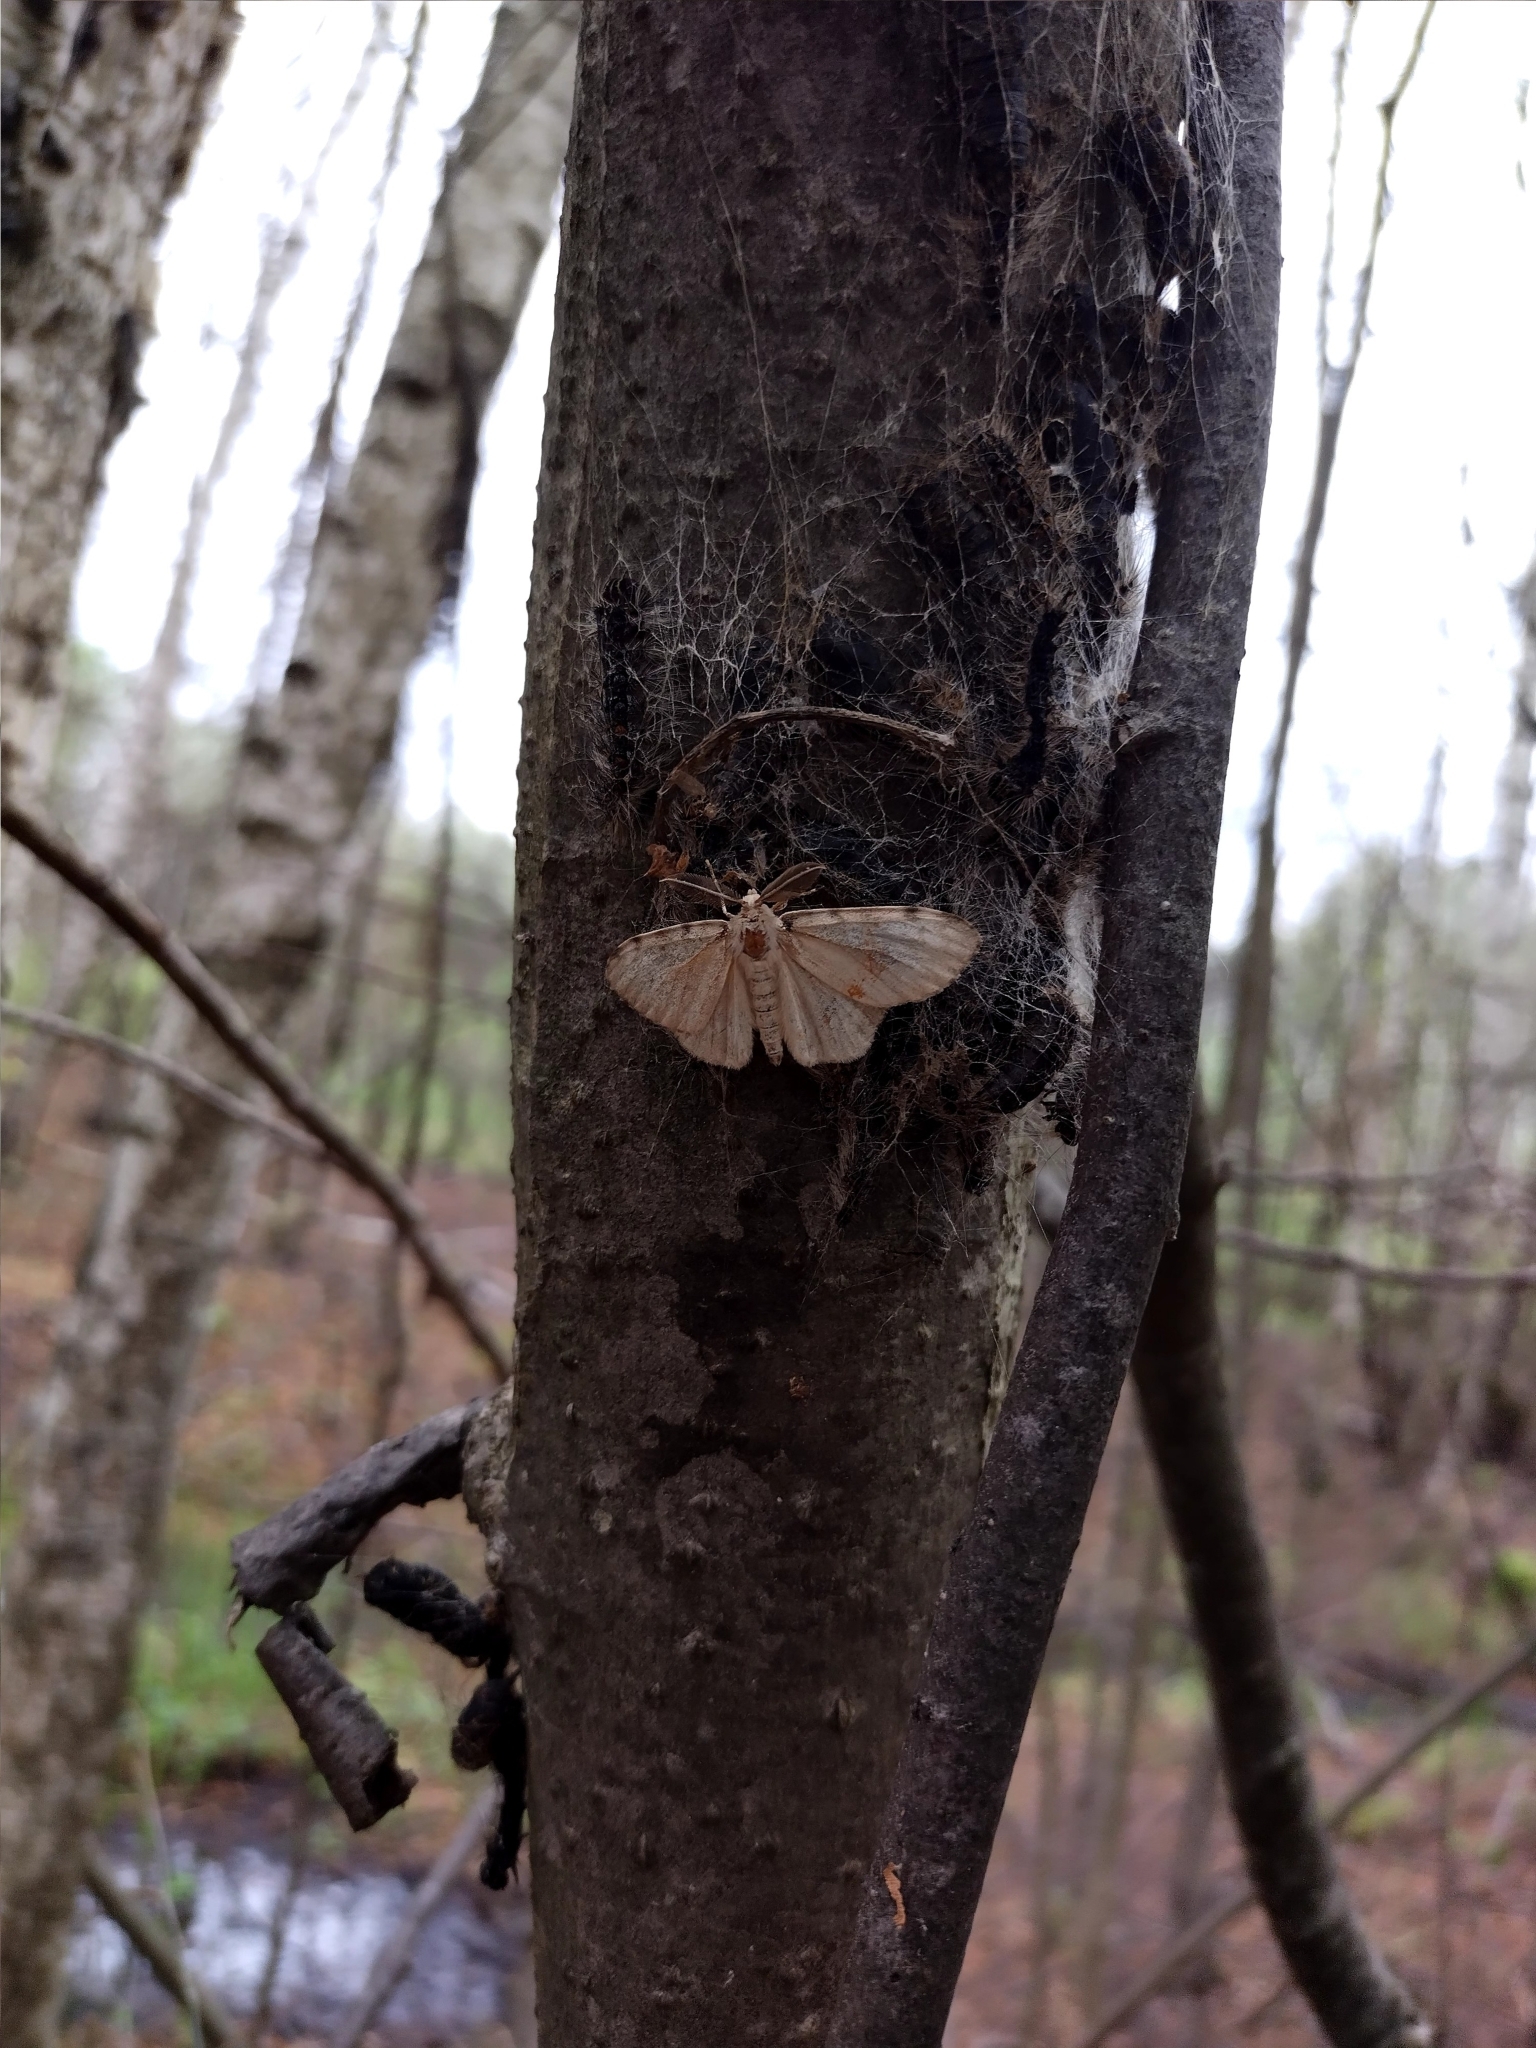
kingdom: Animalia
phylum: Arthropoda
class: Insecta
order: Lepidoptera
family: Erebidae
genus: Lymantria
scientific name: Lymantria dispar
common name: Gypsy moth
